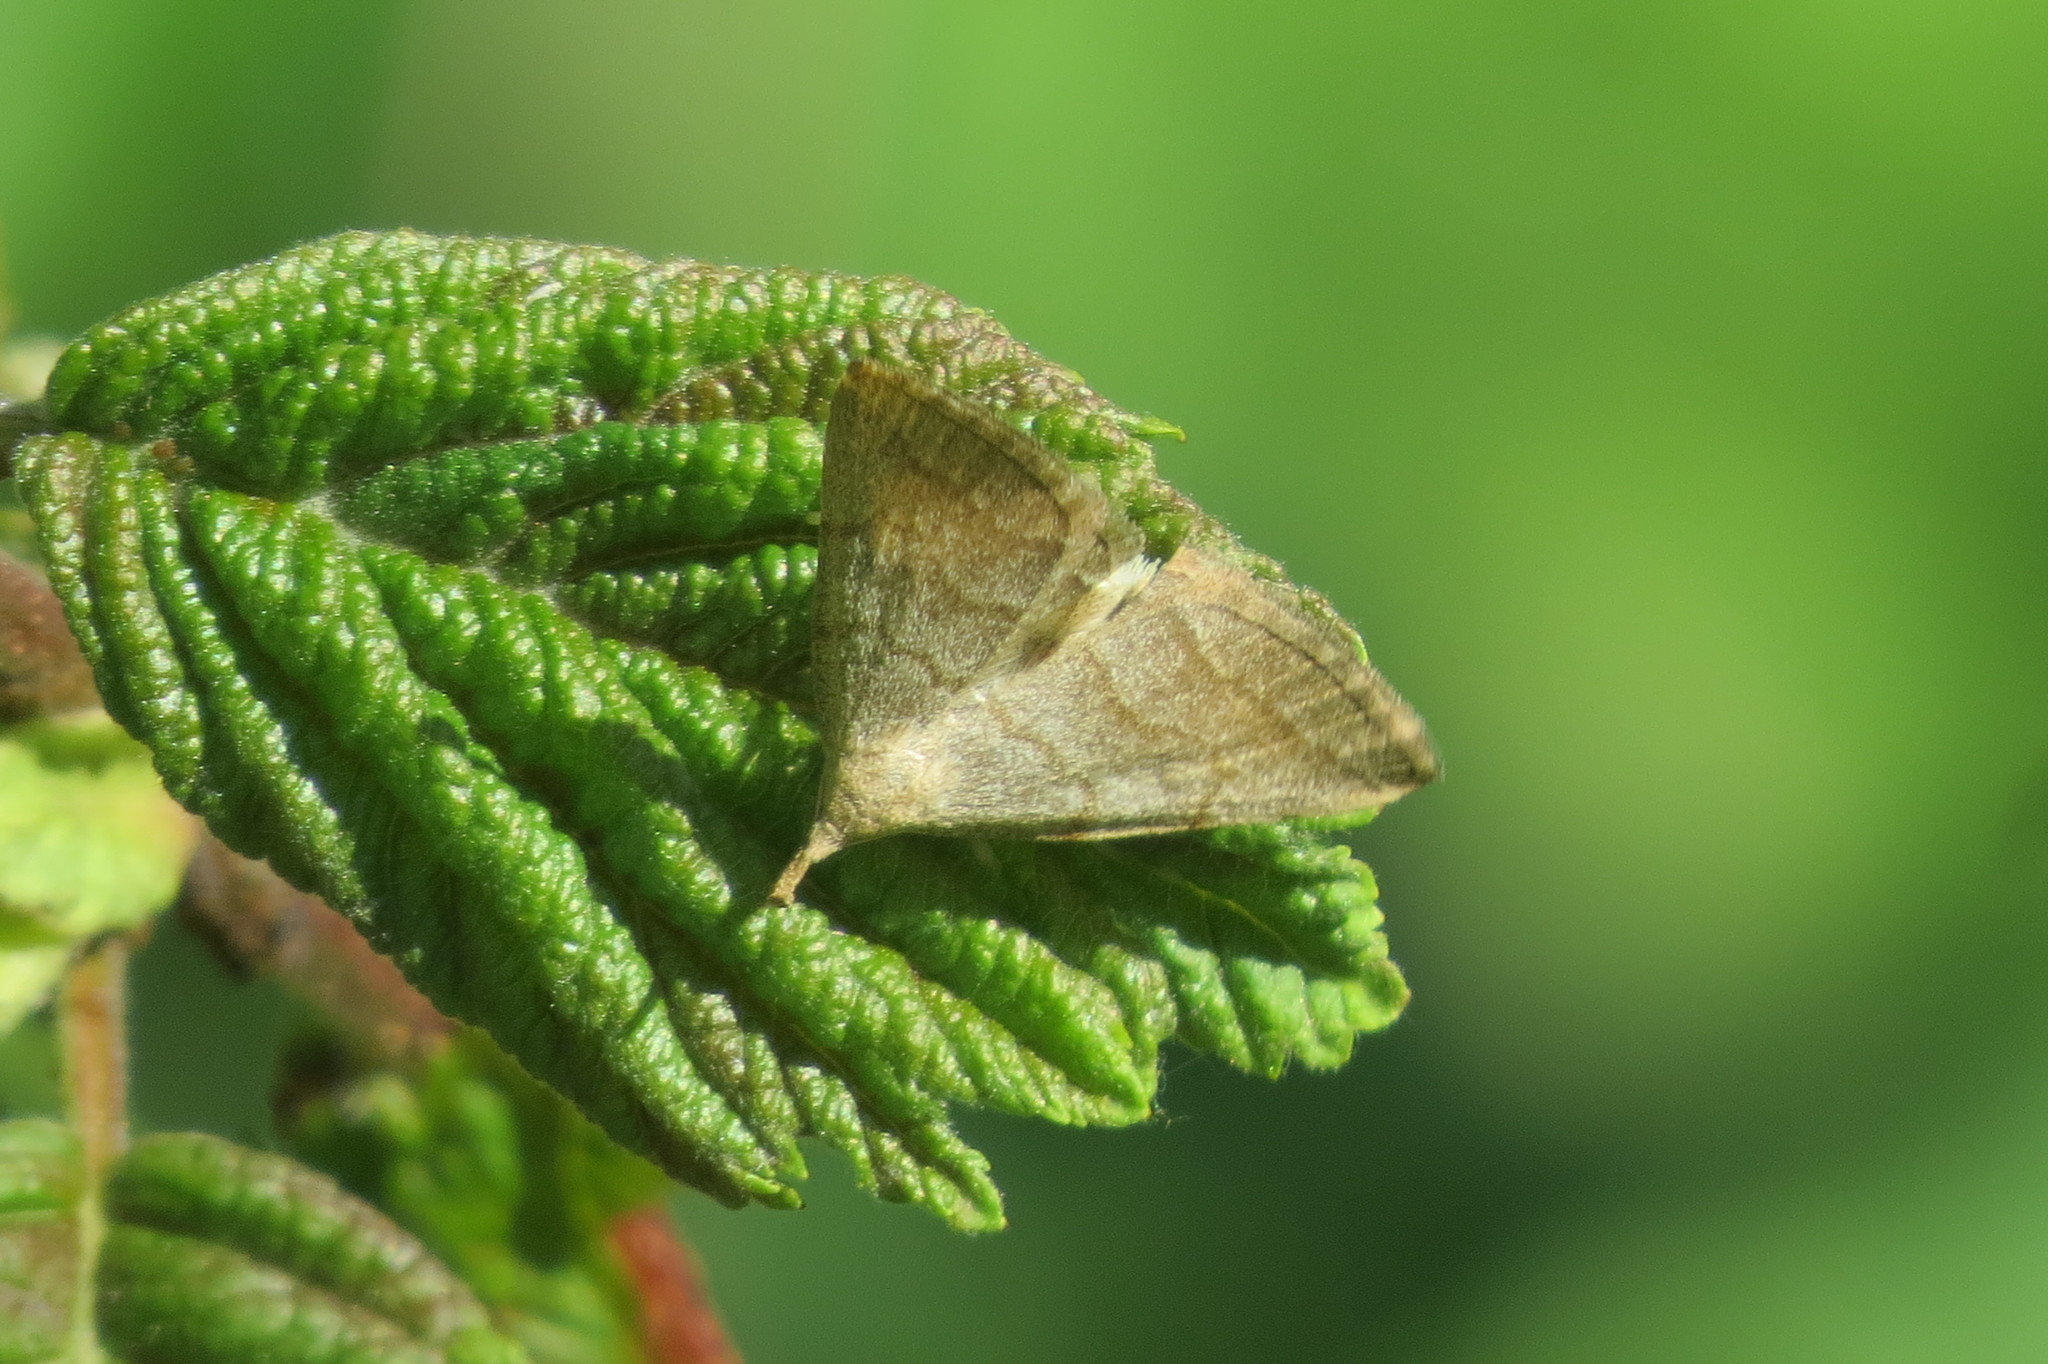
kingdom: Animalia
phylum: Arthropoda
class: Insecta
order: Lepidoptera
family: Erebidae
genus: Pechipogo
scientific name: Pechipogo strigilata
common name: Common fan-foot
